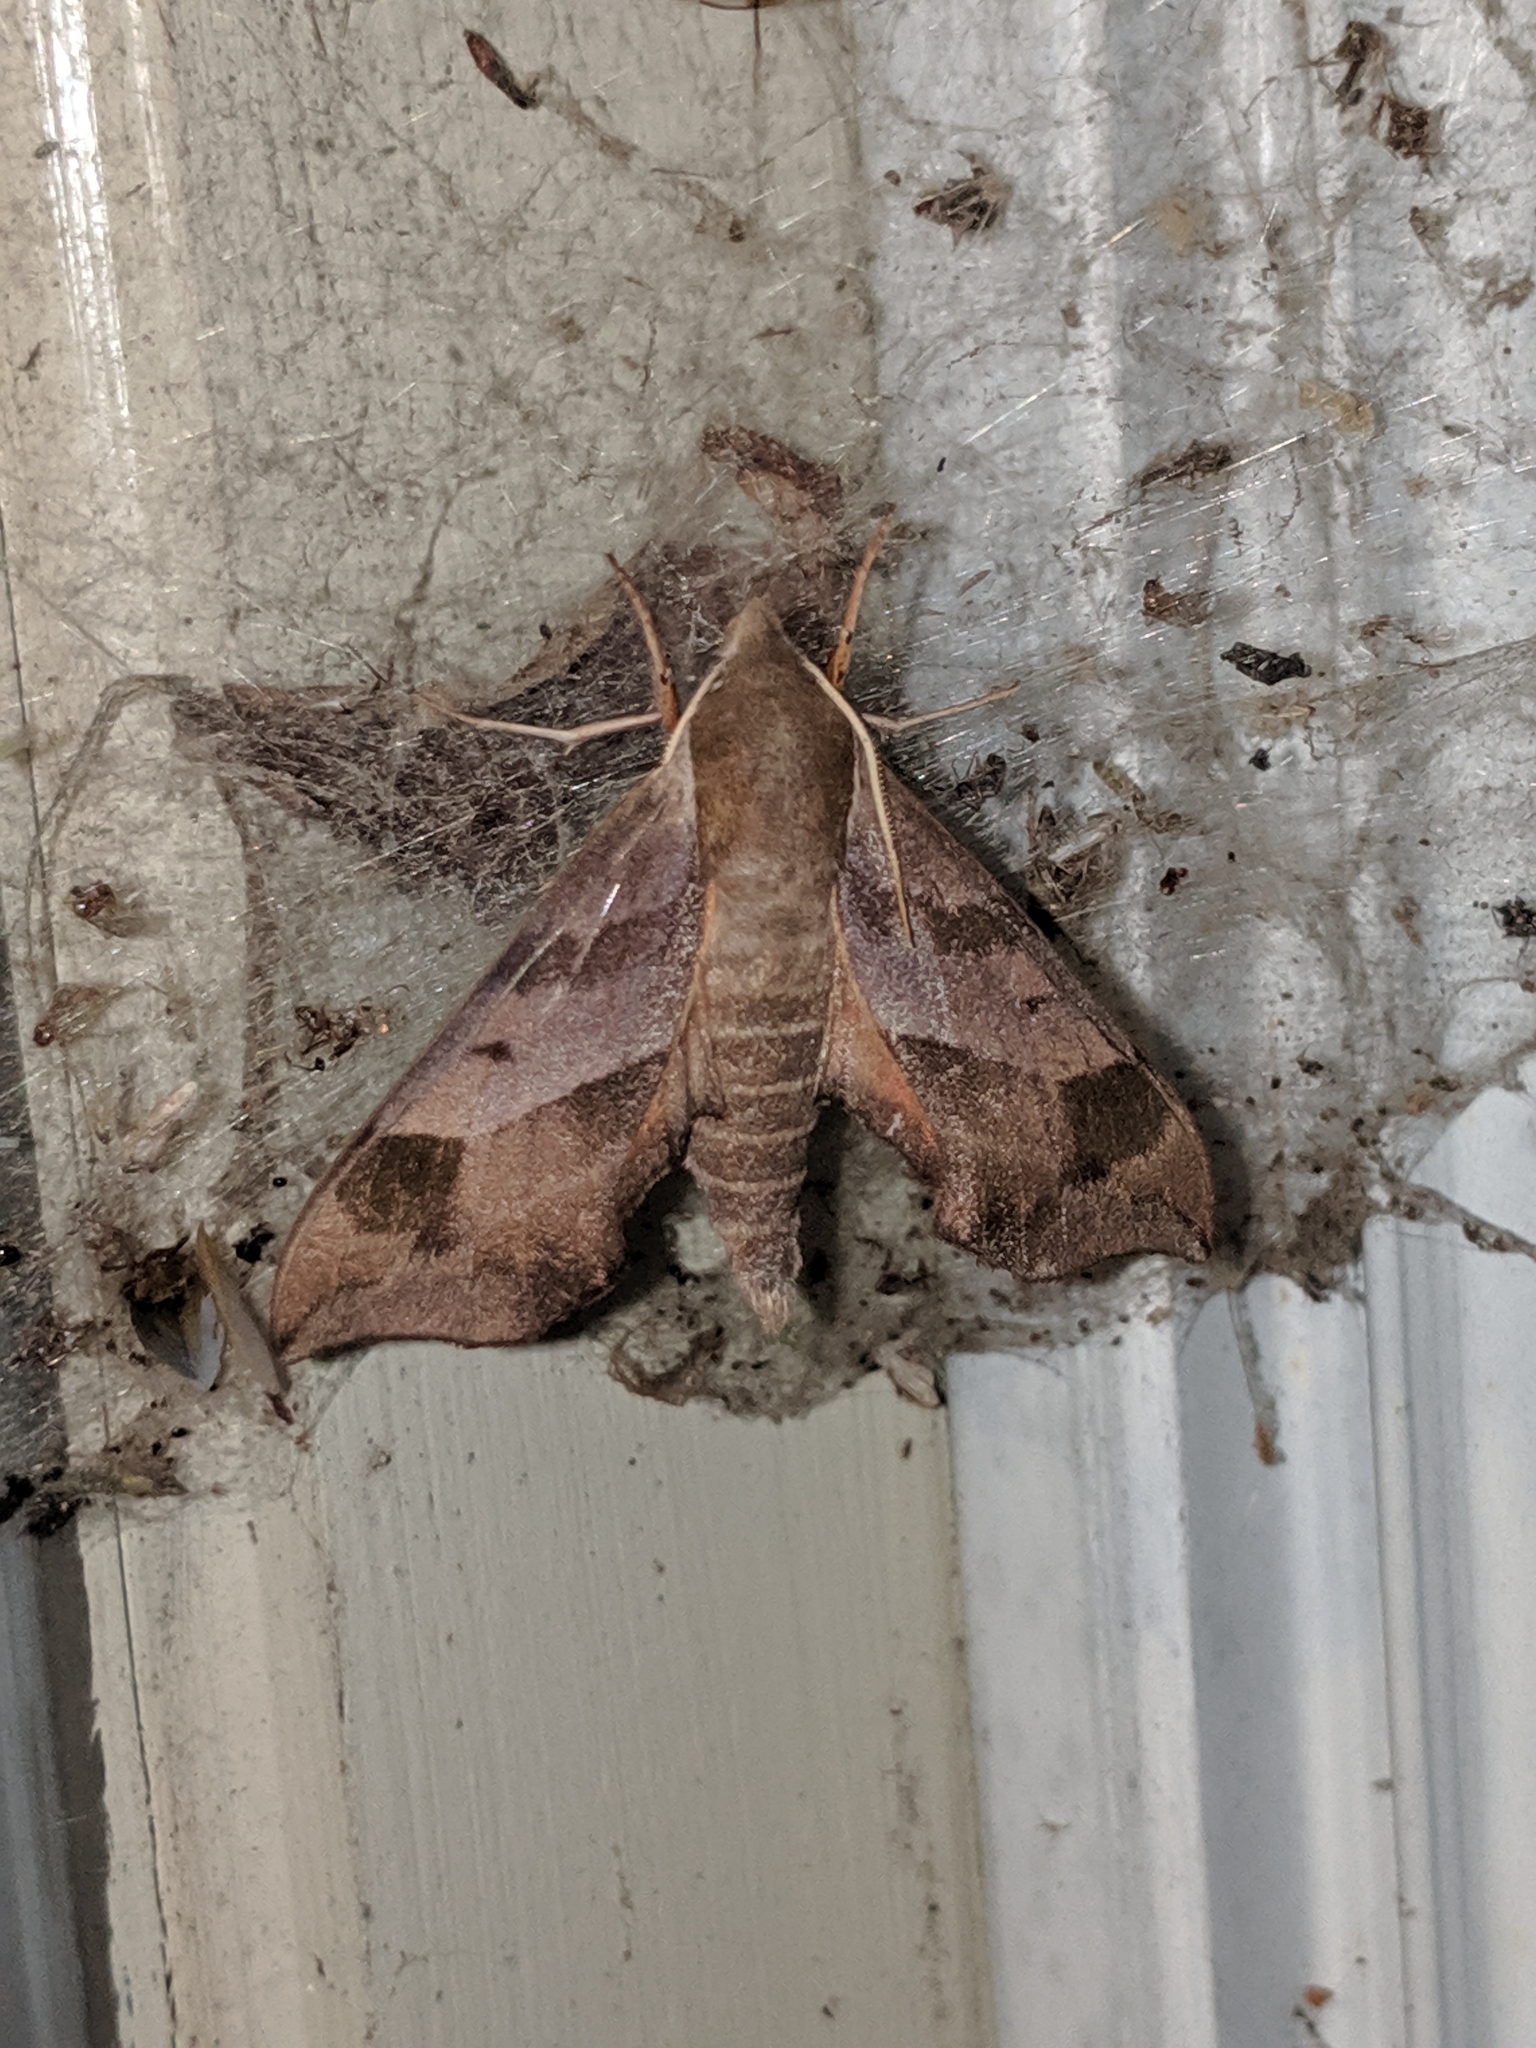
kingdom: Animalia
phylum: Arthropoda
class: Insecta
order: Lepidoptera
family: Sphingidae
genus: Darapsa
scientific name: Darapsa myron
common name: Hog sphinx
